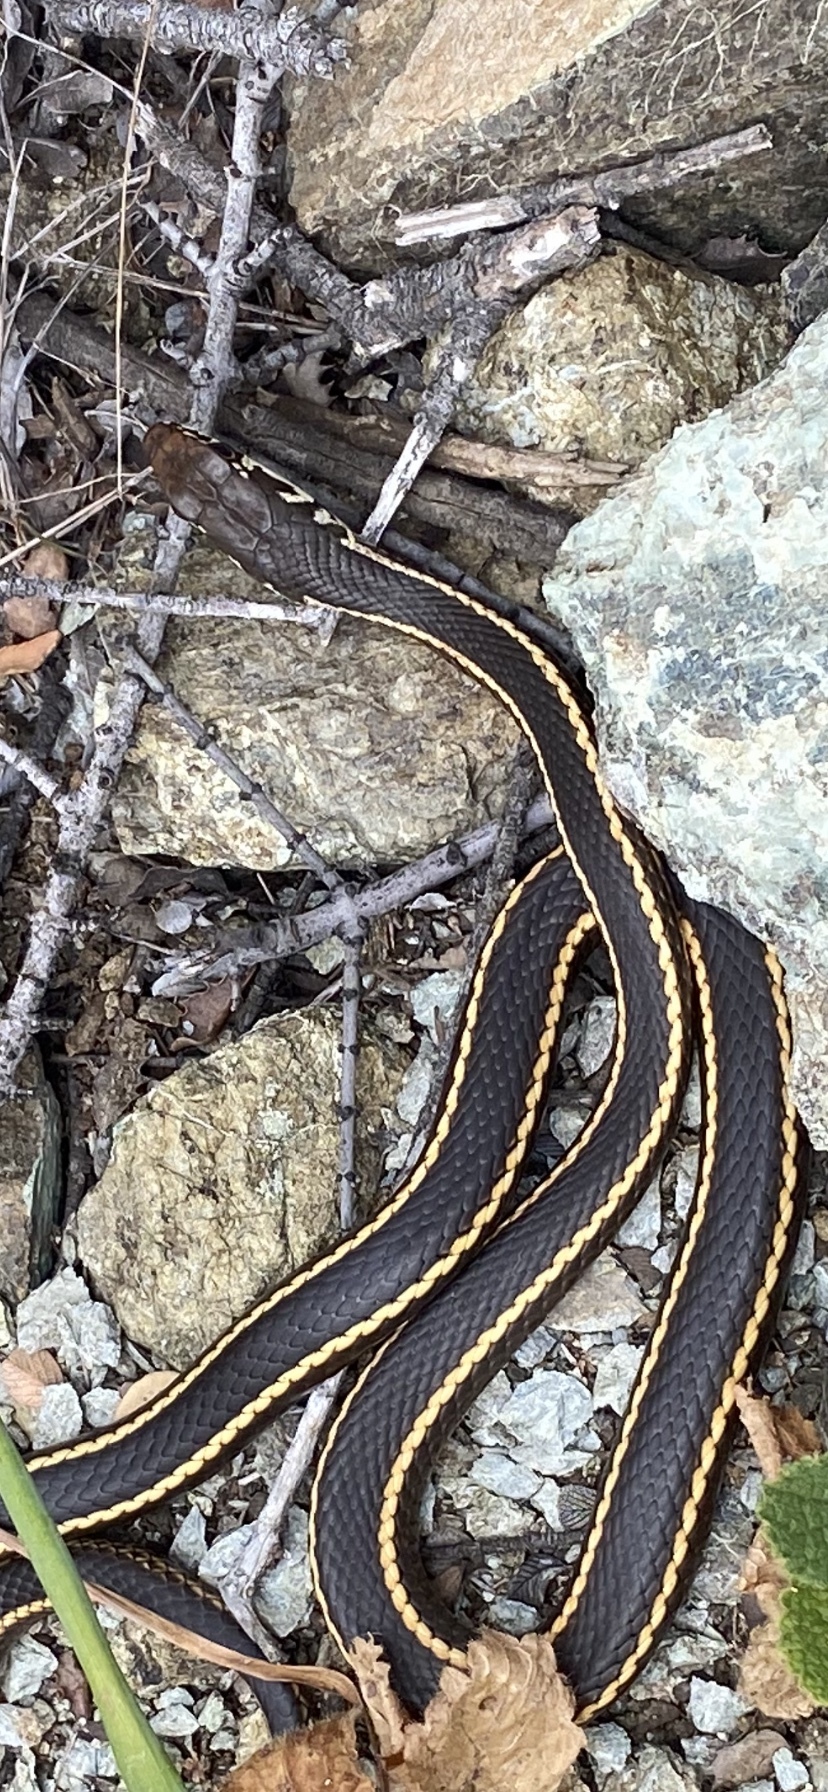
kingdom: Animalia
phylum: Chordata
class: Squamata
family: Colubridae
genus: Masticophis
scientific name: Masticophis lateralis
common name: Striped racer
